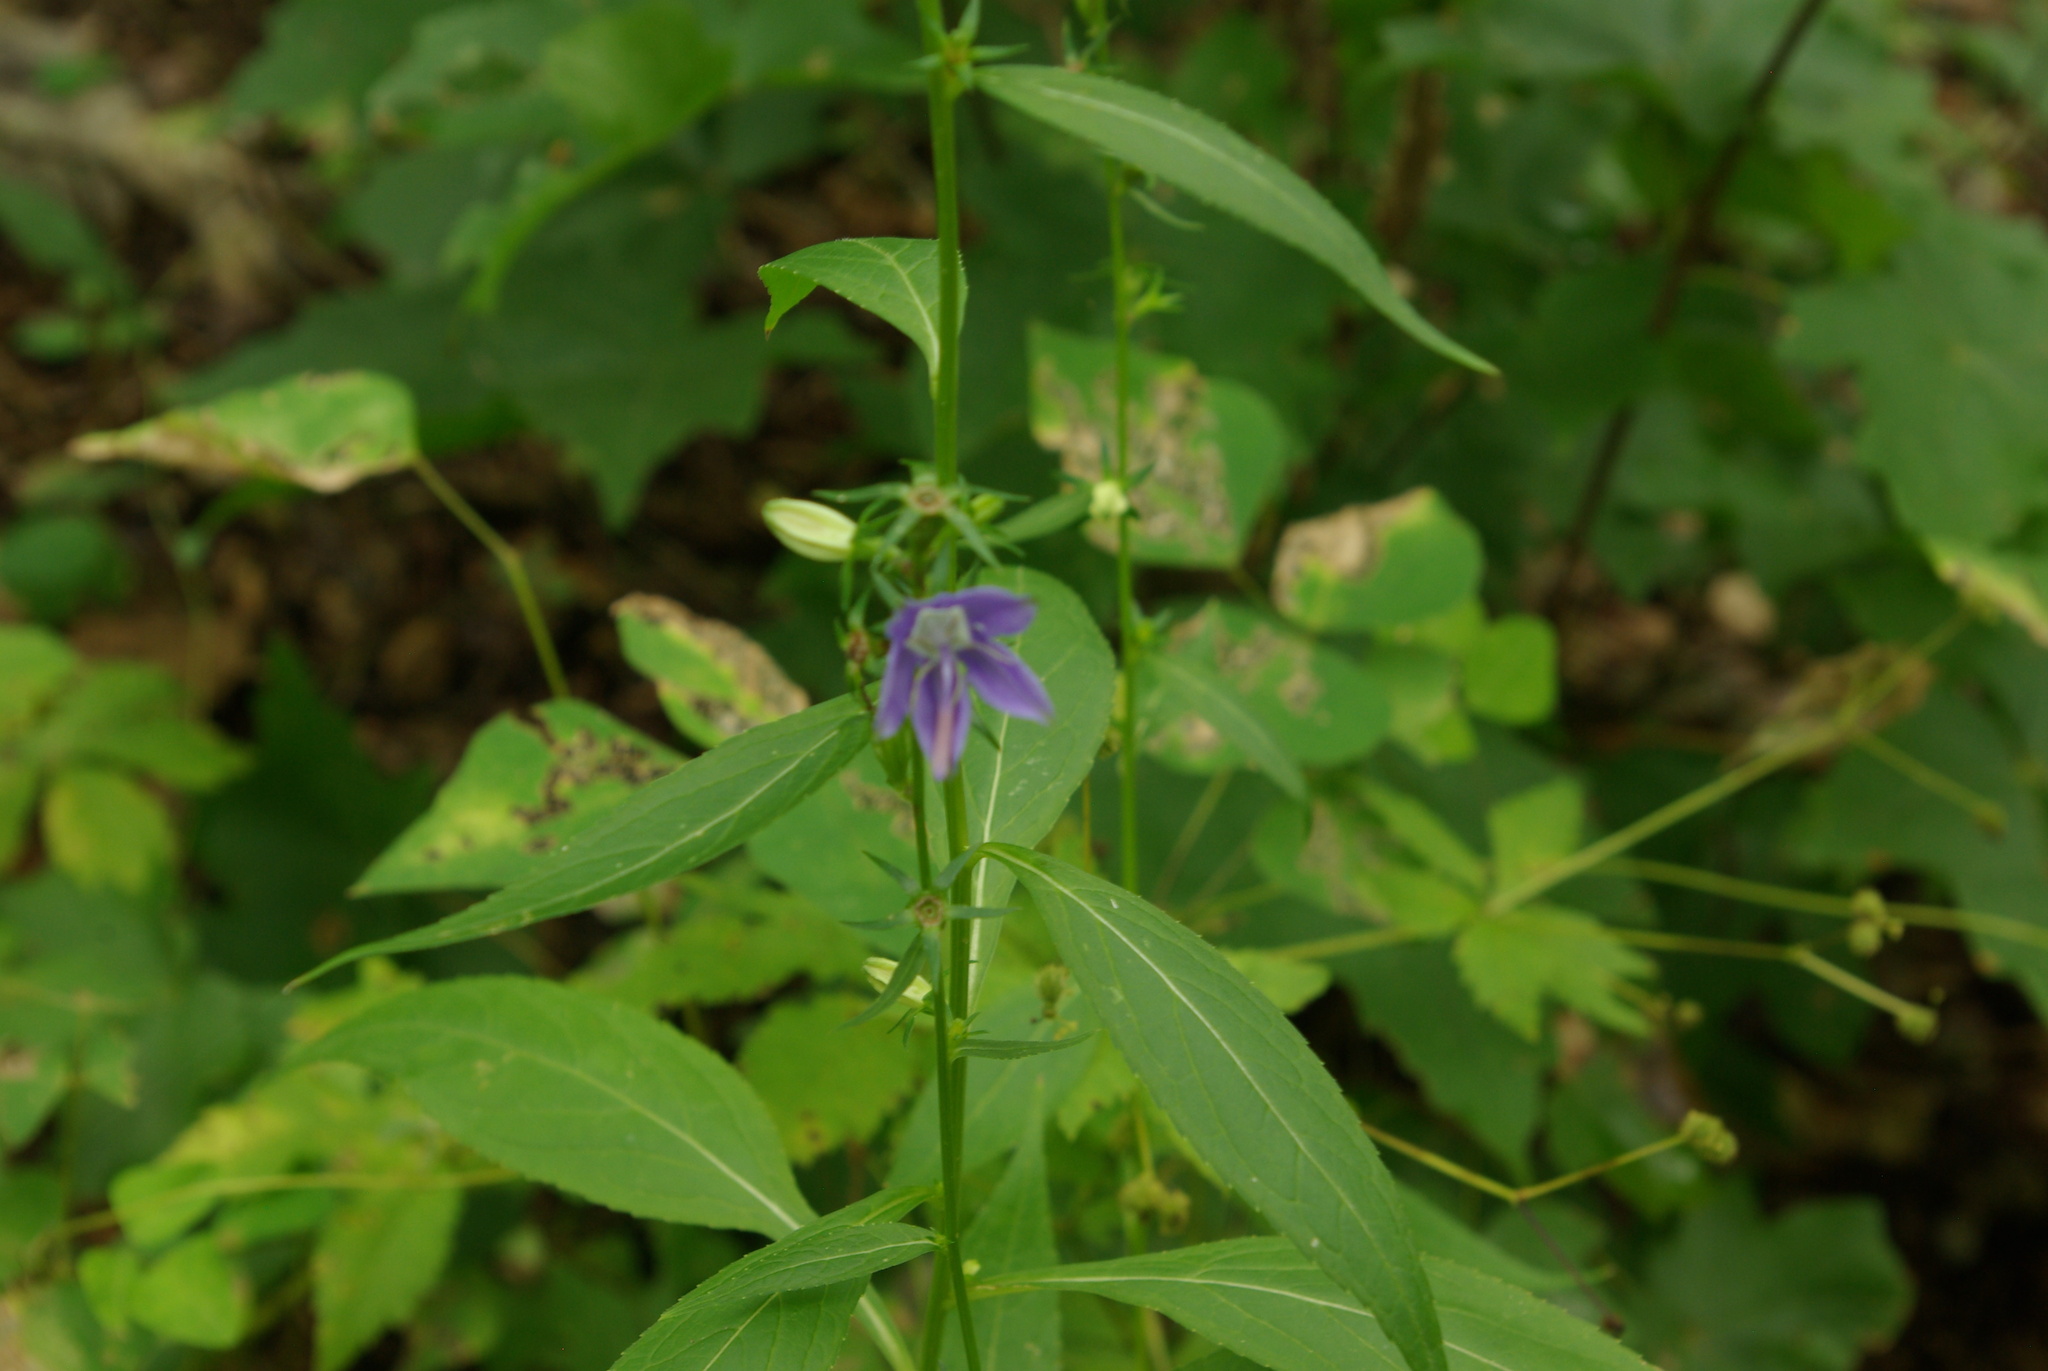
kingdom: Plantae
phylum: Tracheophyta
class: Magnoliopsida
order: Asterales
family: Campanulaceae
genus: Campanulastrum
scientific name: Campanulastrum americanum
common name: American bellflower
